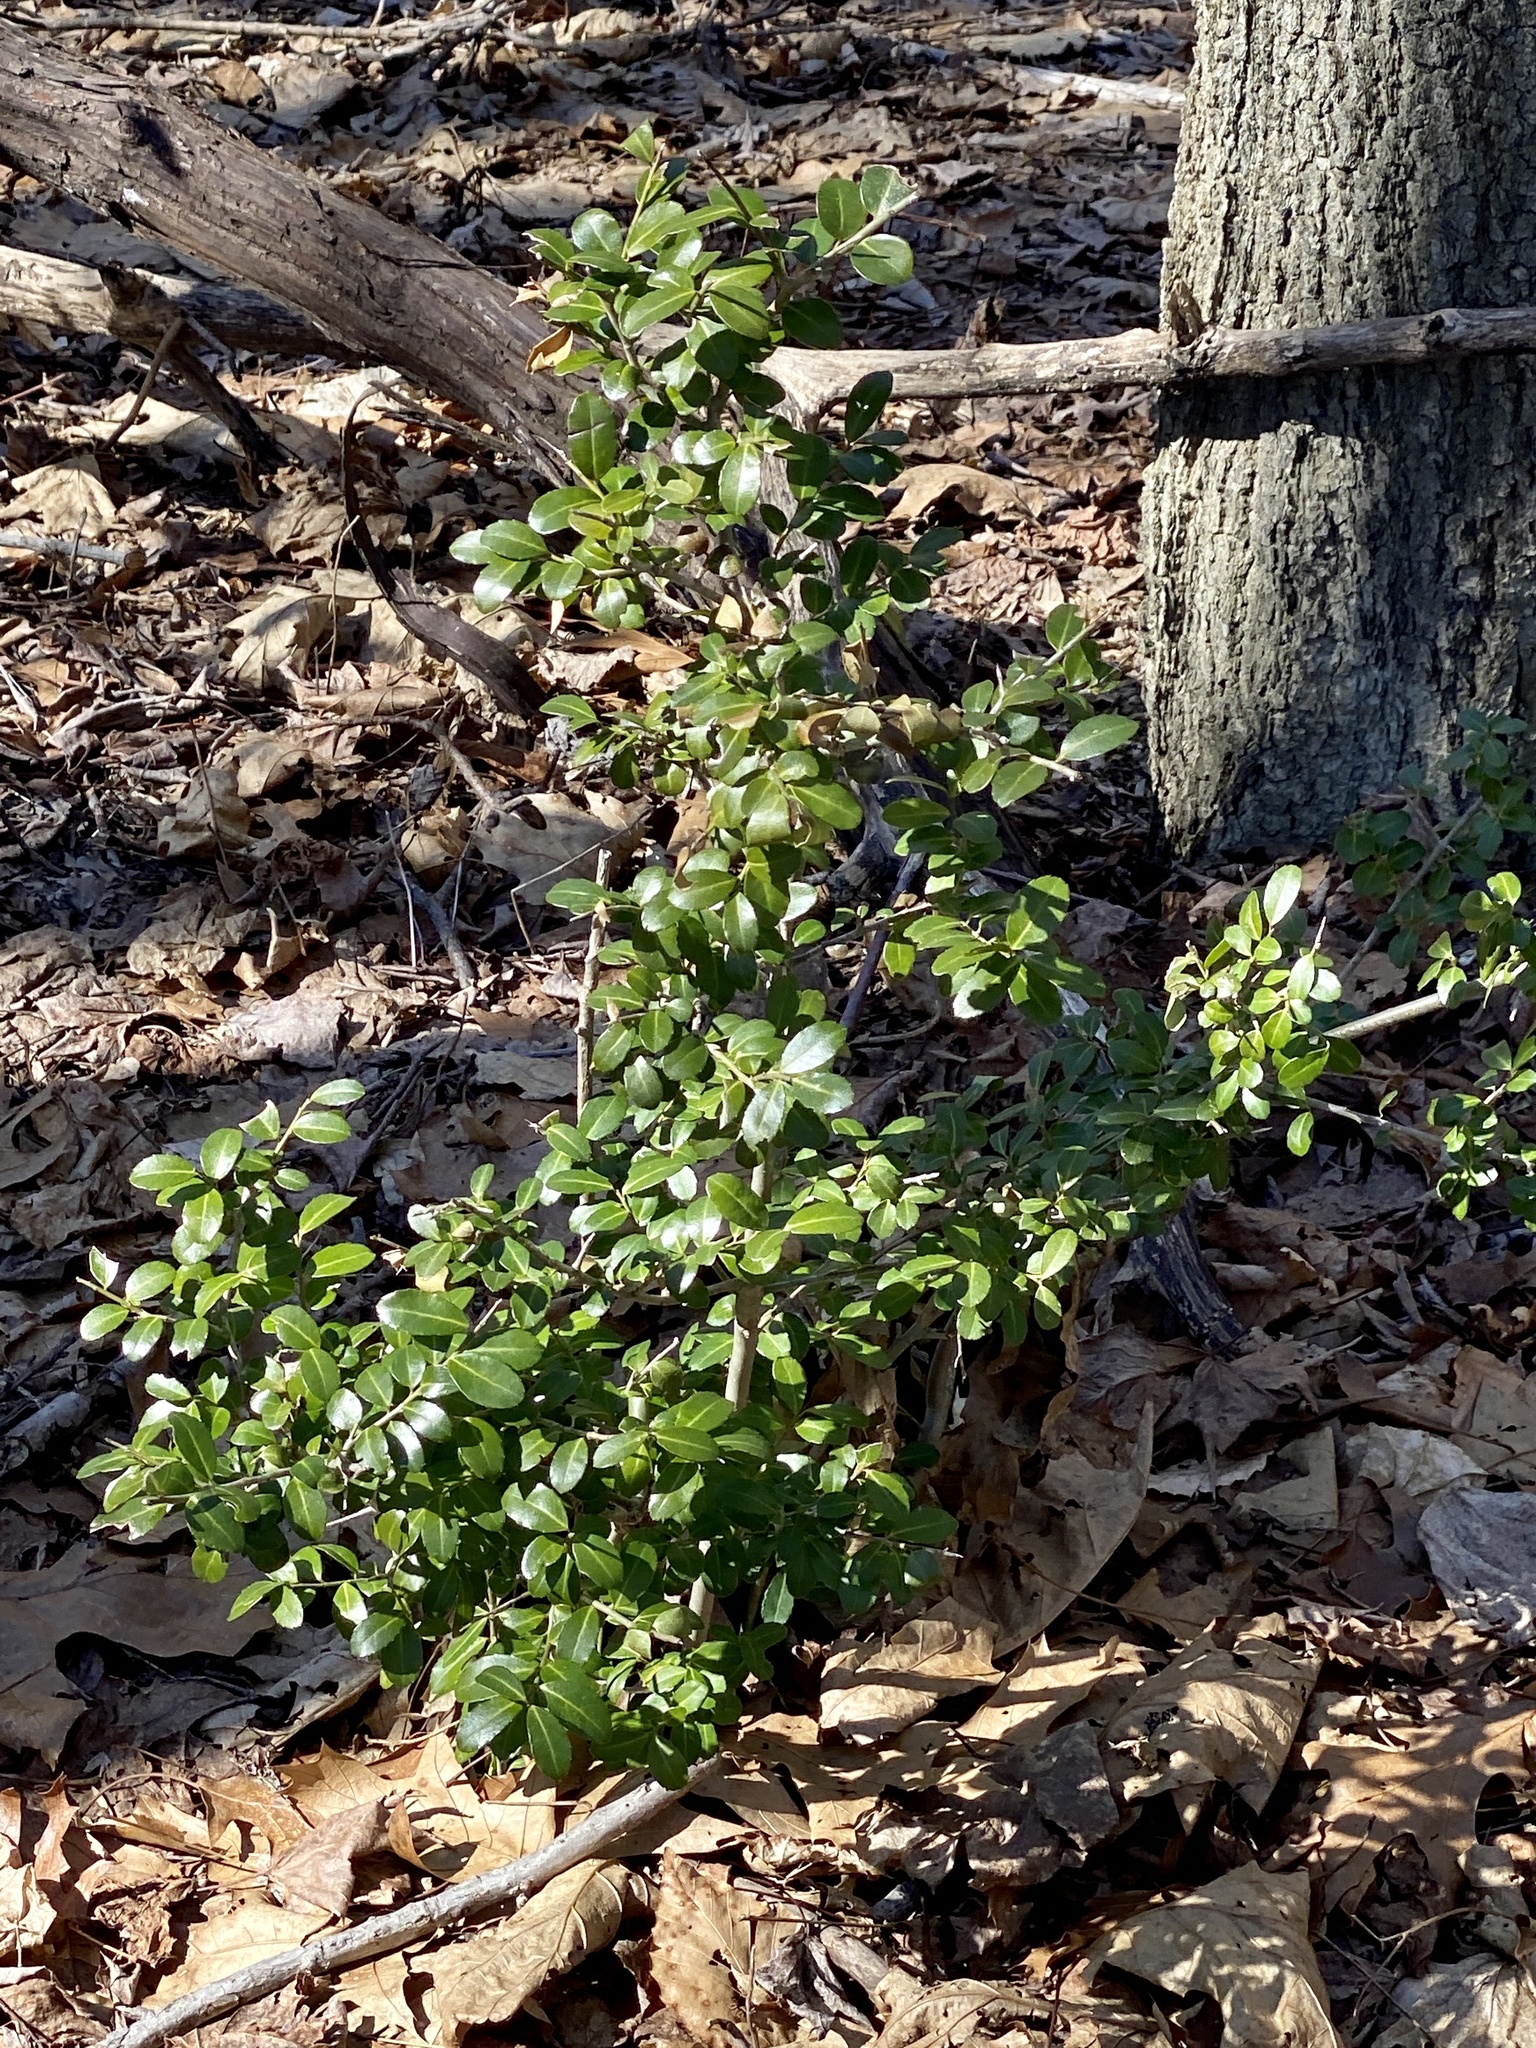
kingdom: Plantae
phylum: Tracheophyta
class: Magnoliopsida
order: Aquifoliales
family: Aquifoliaceae
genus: Ilex
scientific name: Ilex crenata
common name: Japanese holly
